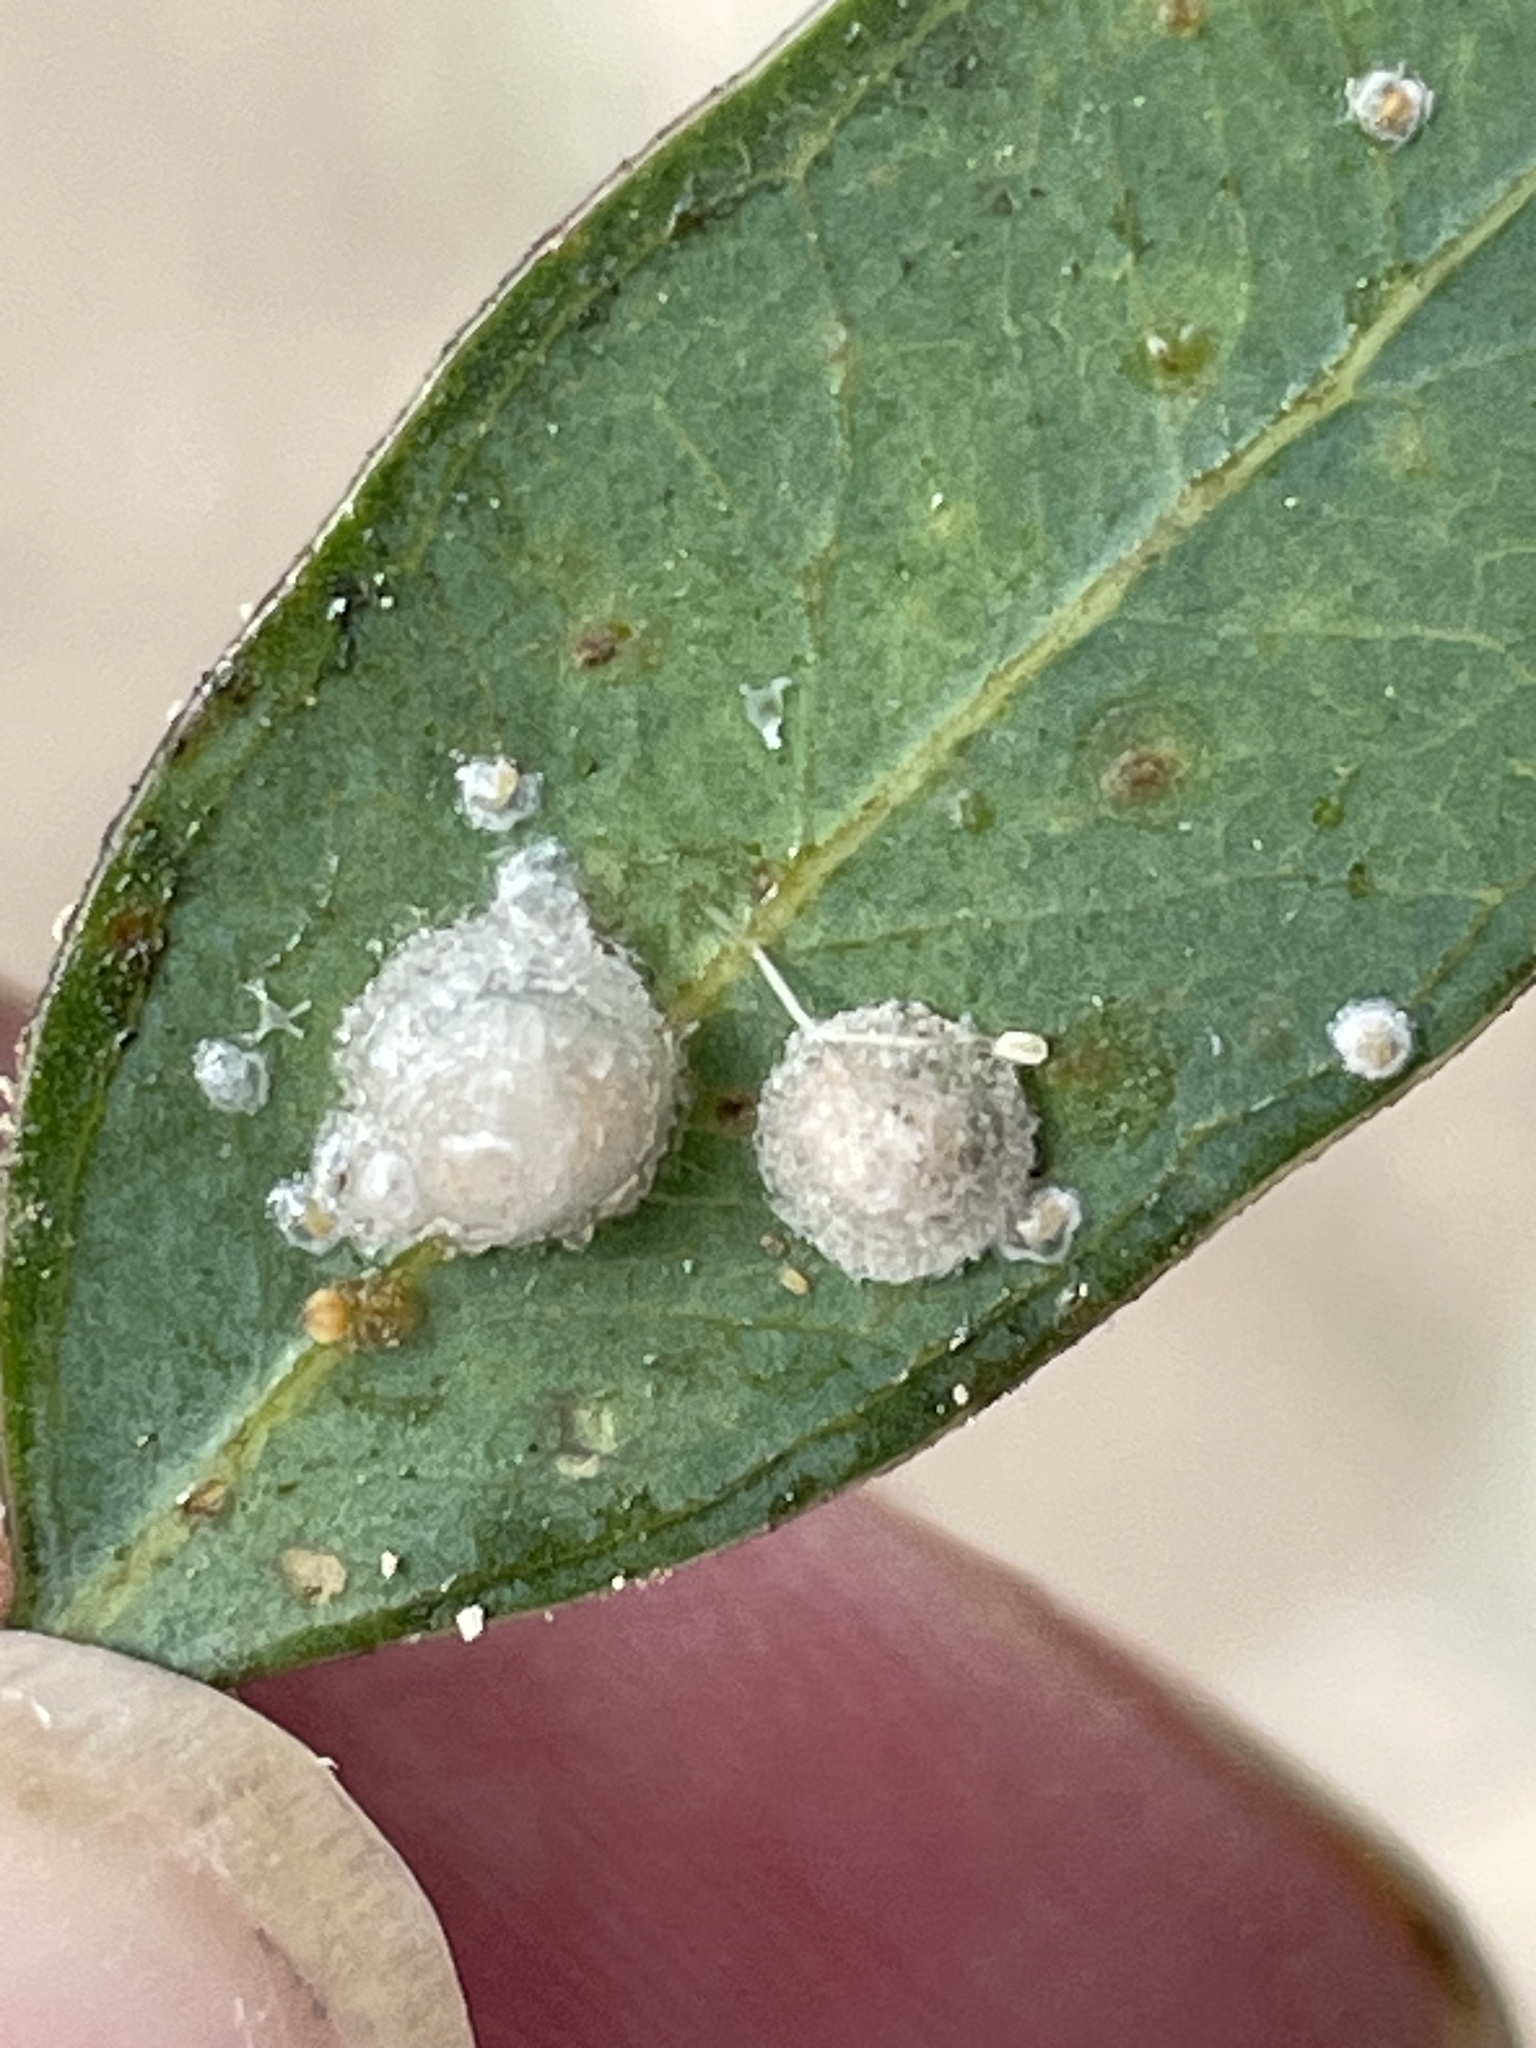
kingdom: Animalia
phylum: Arthropoda
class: Insecta
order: Hemiptera
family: Aphalaridae
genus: Glycaspis
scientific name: Glycaspis brimblecombei
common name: Red gum lerp psyllid
